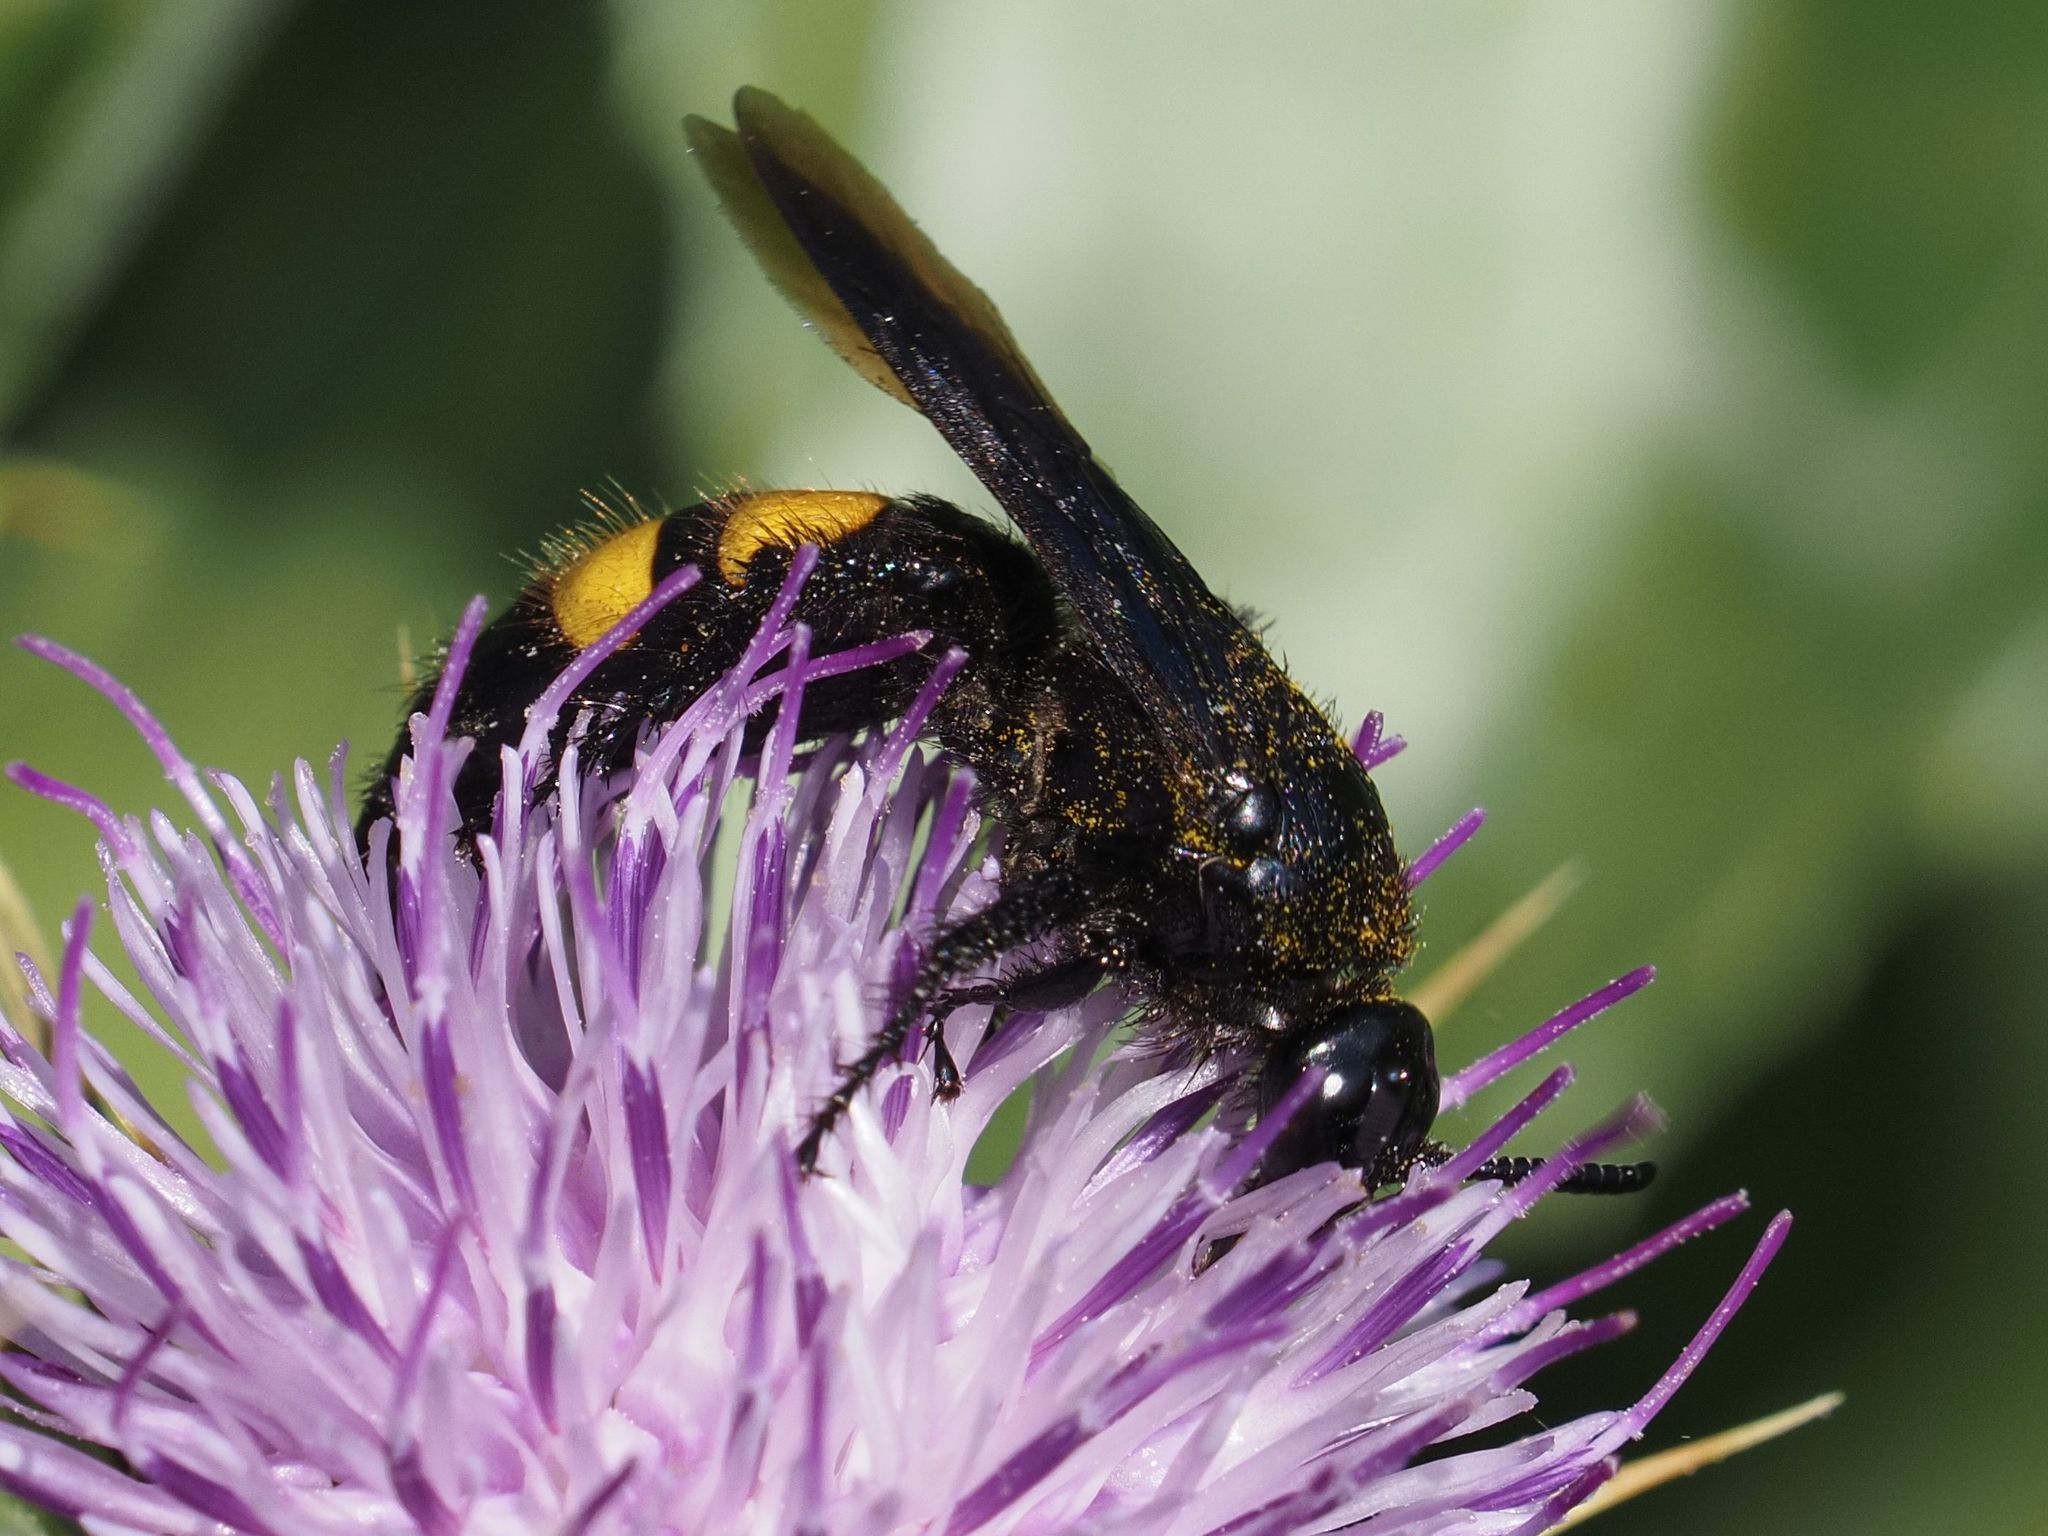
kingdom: Animalia
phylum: Arthropoda
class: Insecta
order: Hymenoptera
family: Scoliidae
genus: Scolia
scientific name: Scolia hirta
